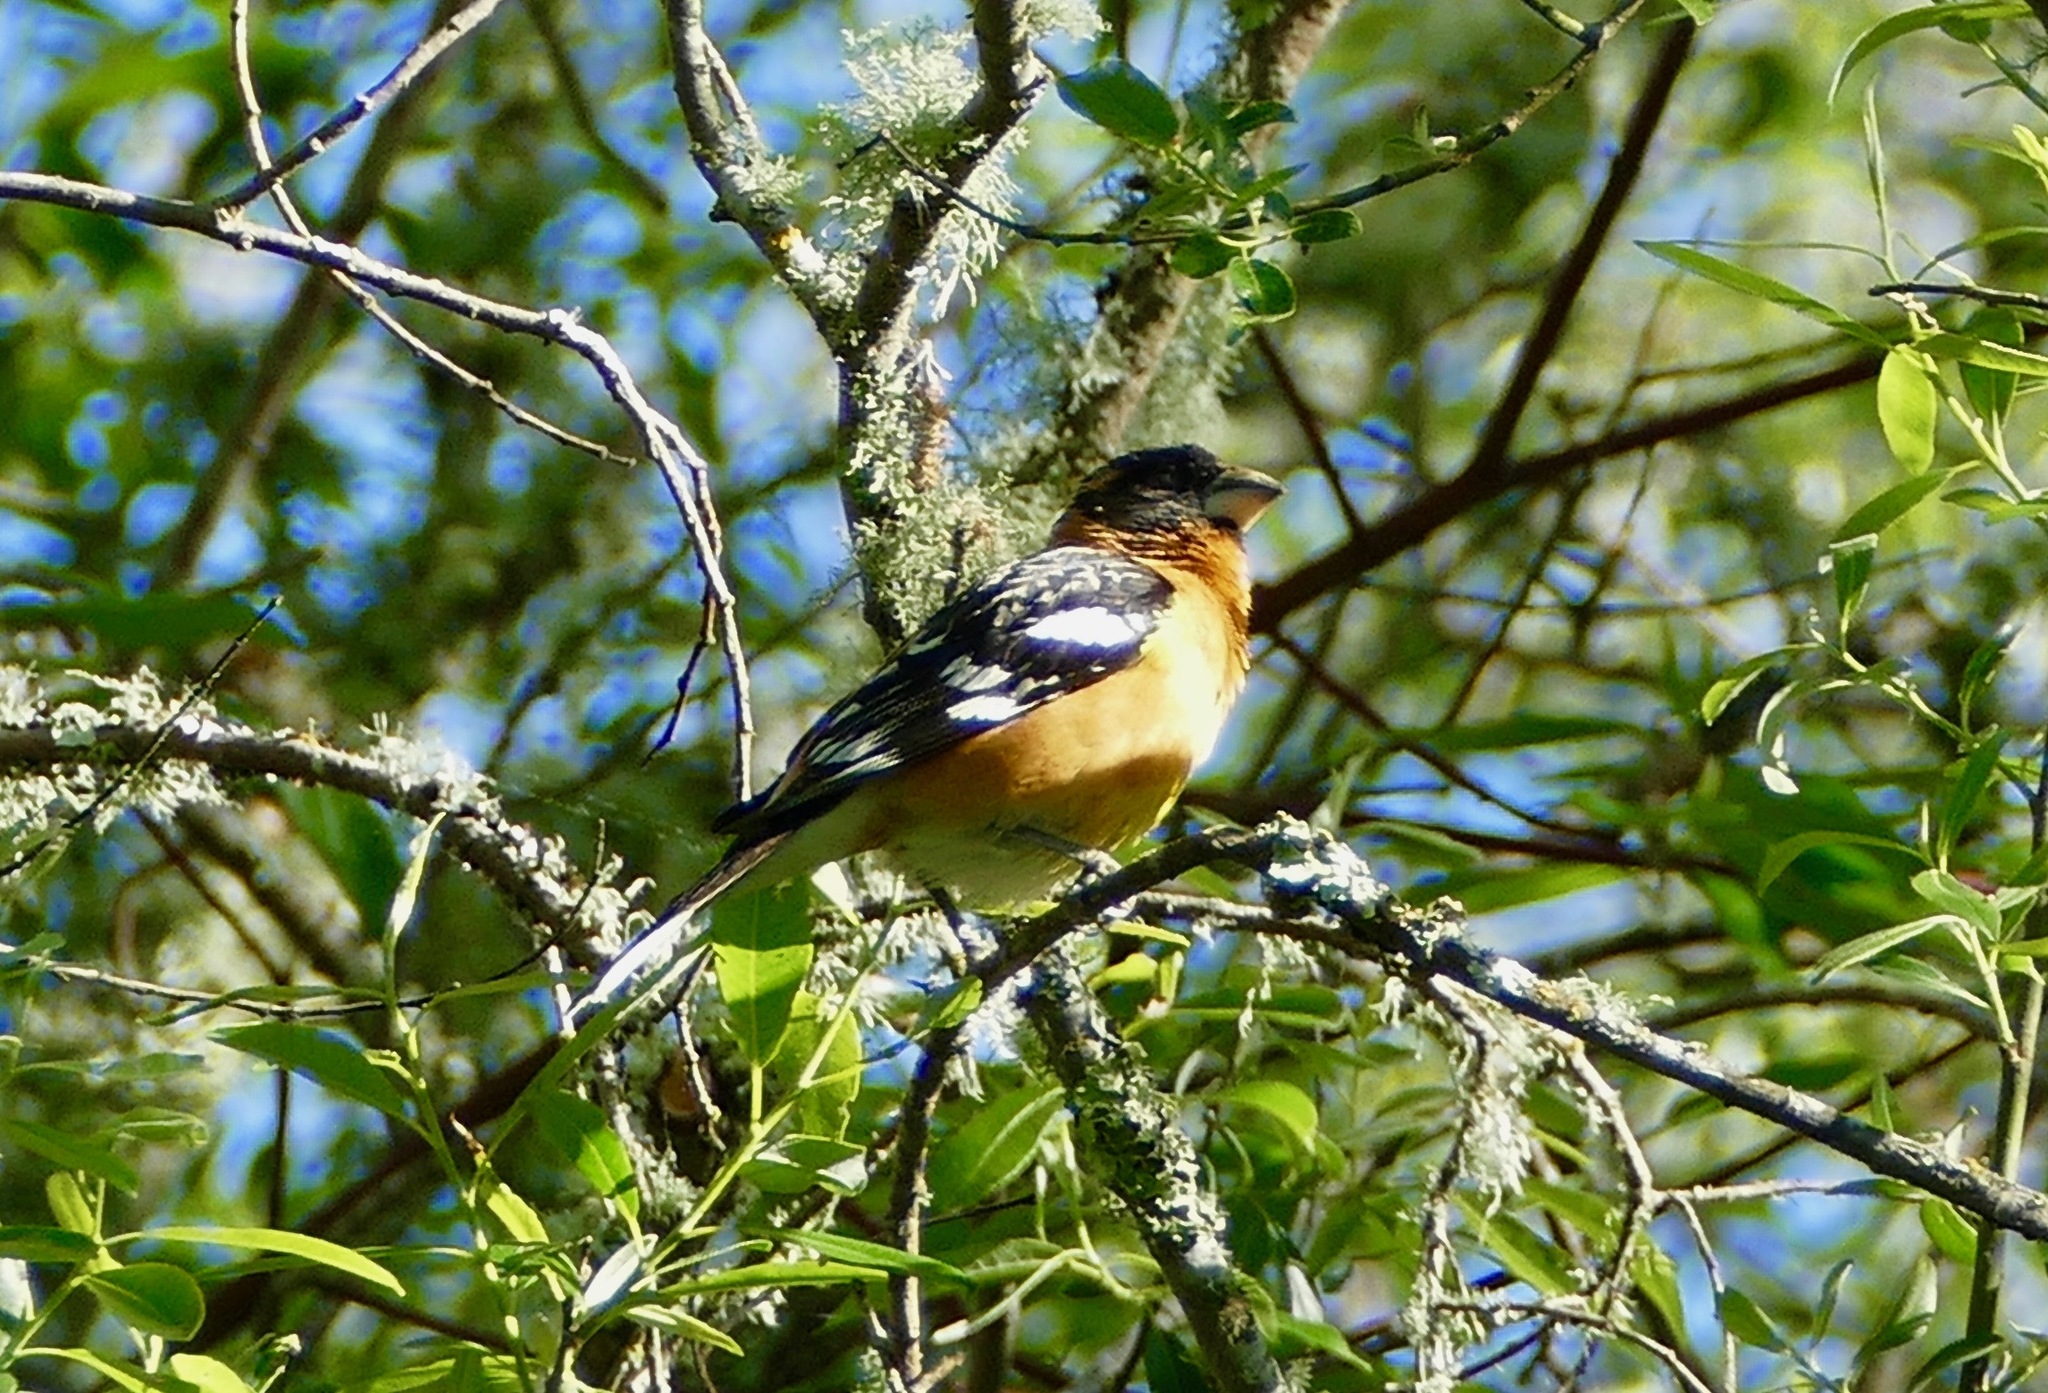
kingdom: Animalia
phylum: Chordata
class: Aves
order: Passeriformes
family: Cardinalidae
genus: Pheucticus
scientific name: Pheucticus melanocephalus
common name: Black-headed grosbeak
